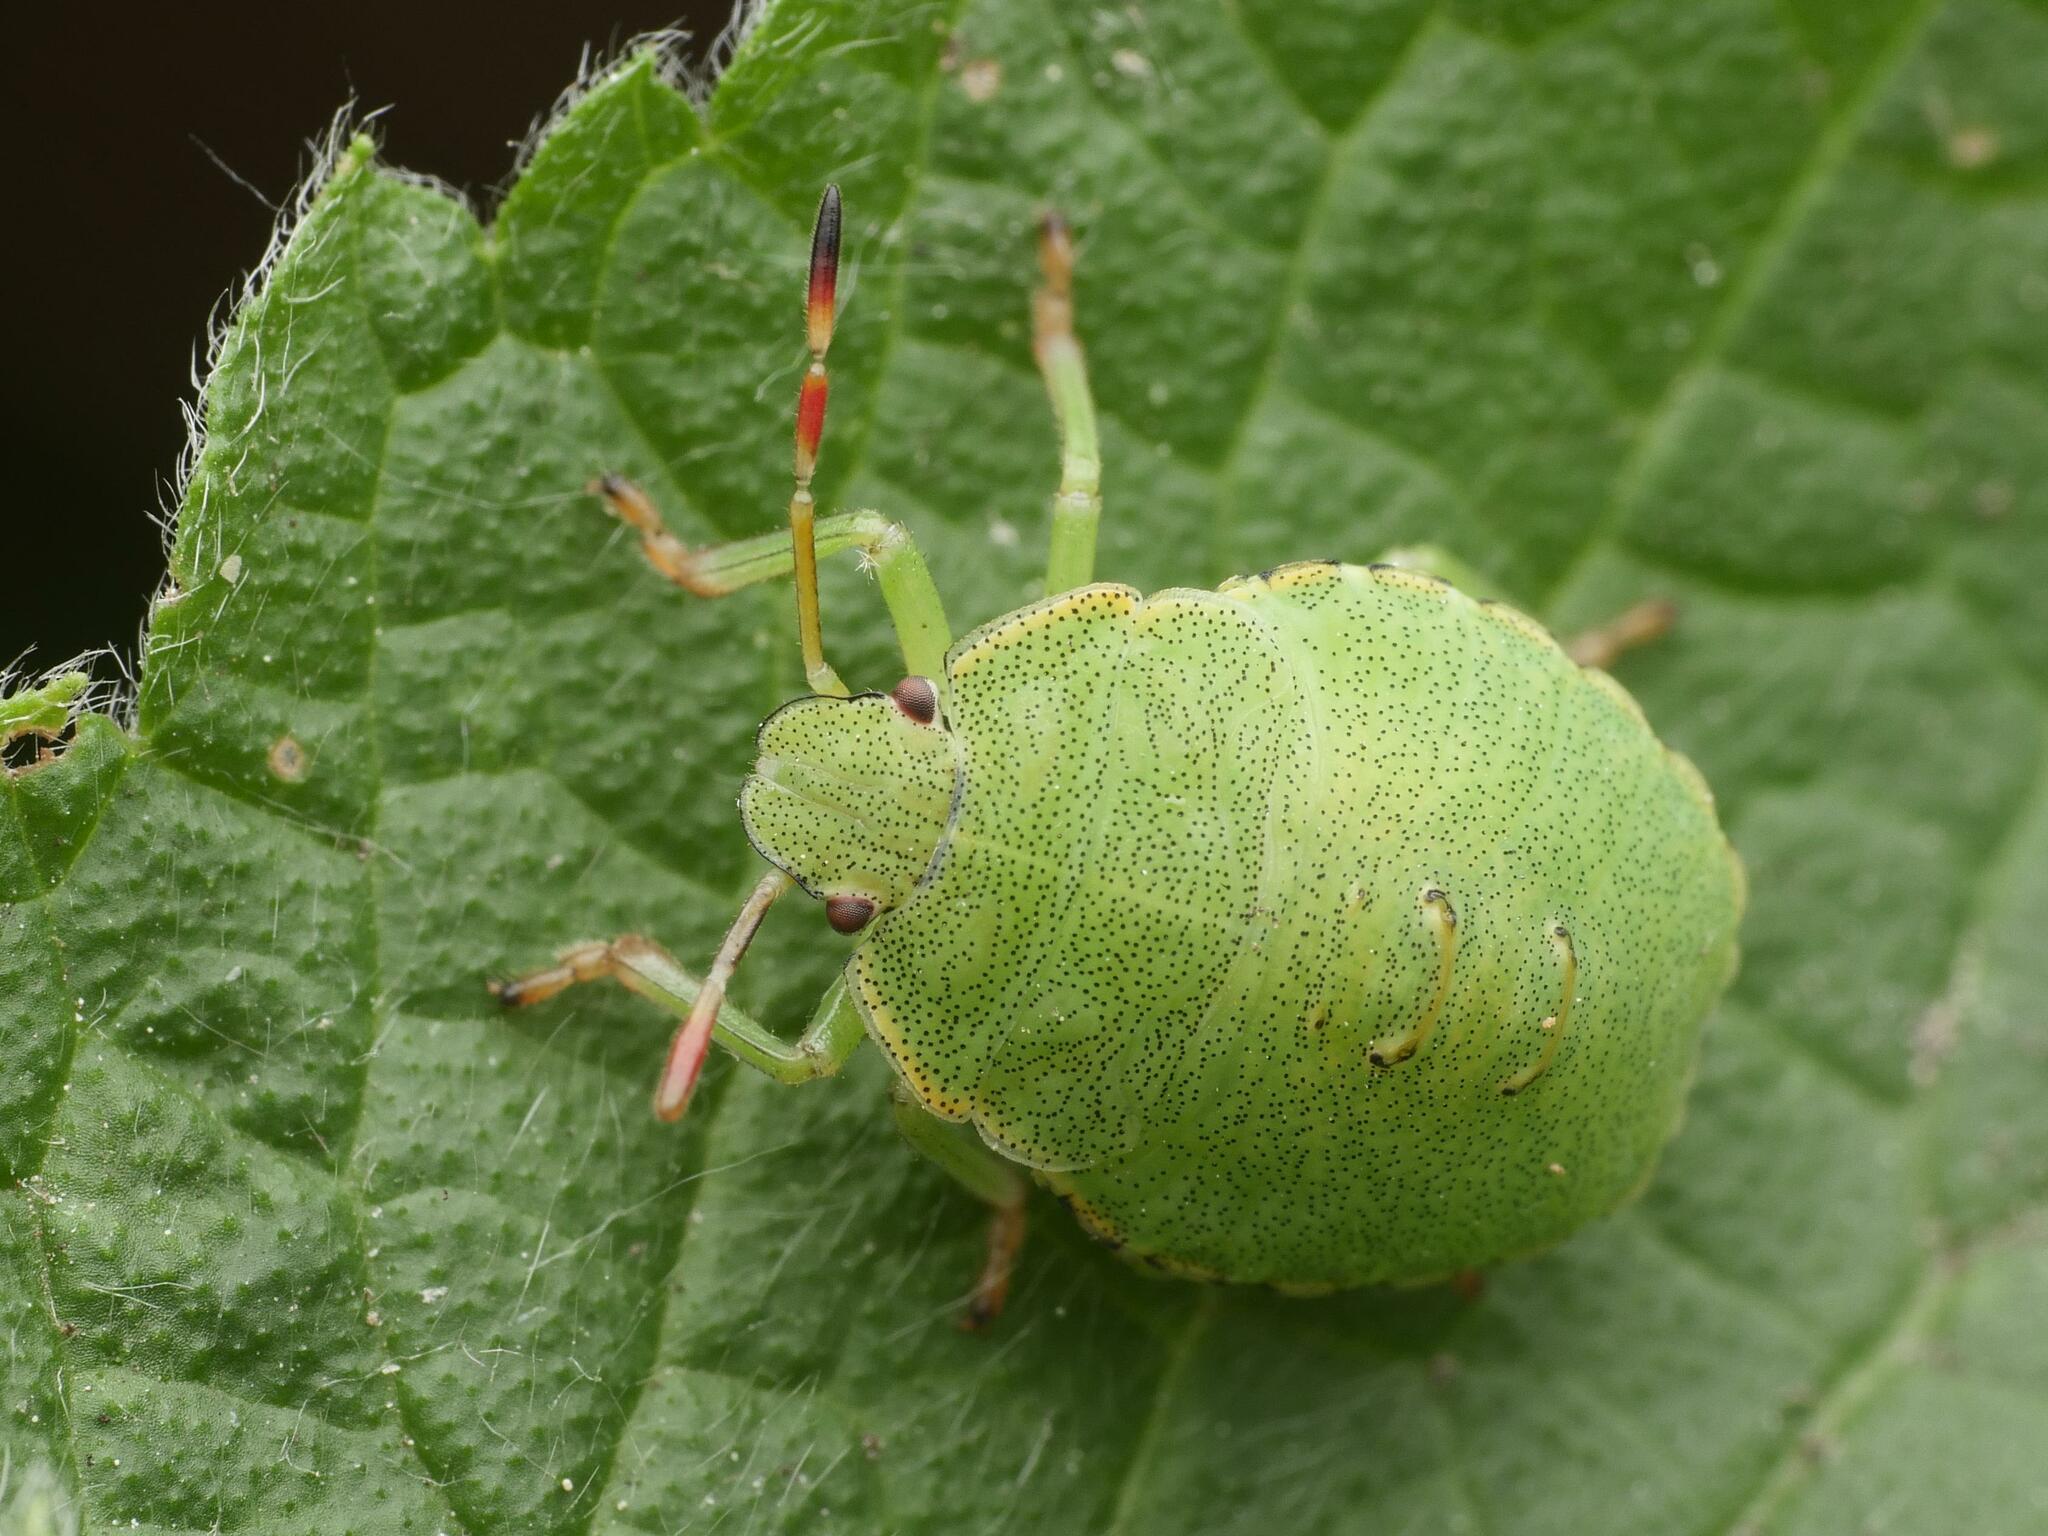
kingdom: Animalia
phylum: Arthropoda
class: Insecta
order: Hemiptera
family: Pentatomidae
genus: Palomena
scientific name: Palomena prasina
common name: Green shieldbug
